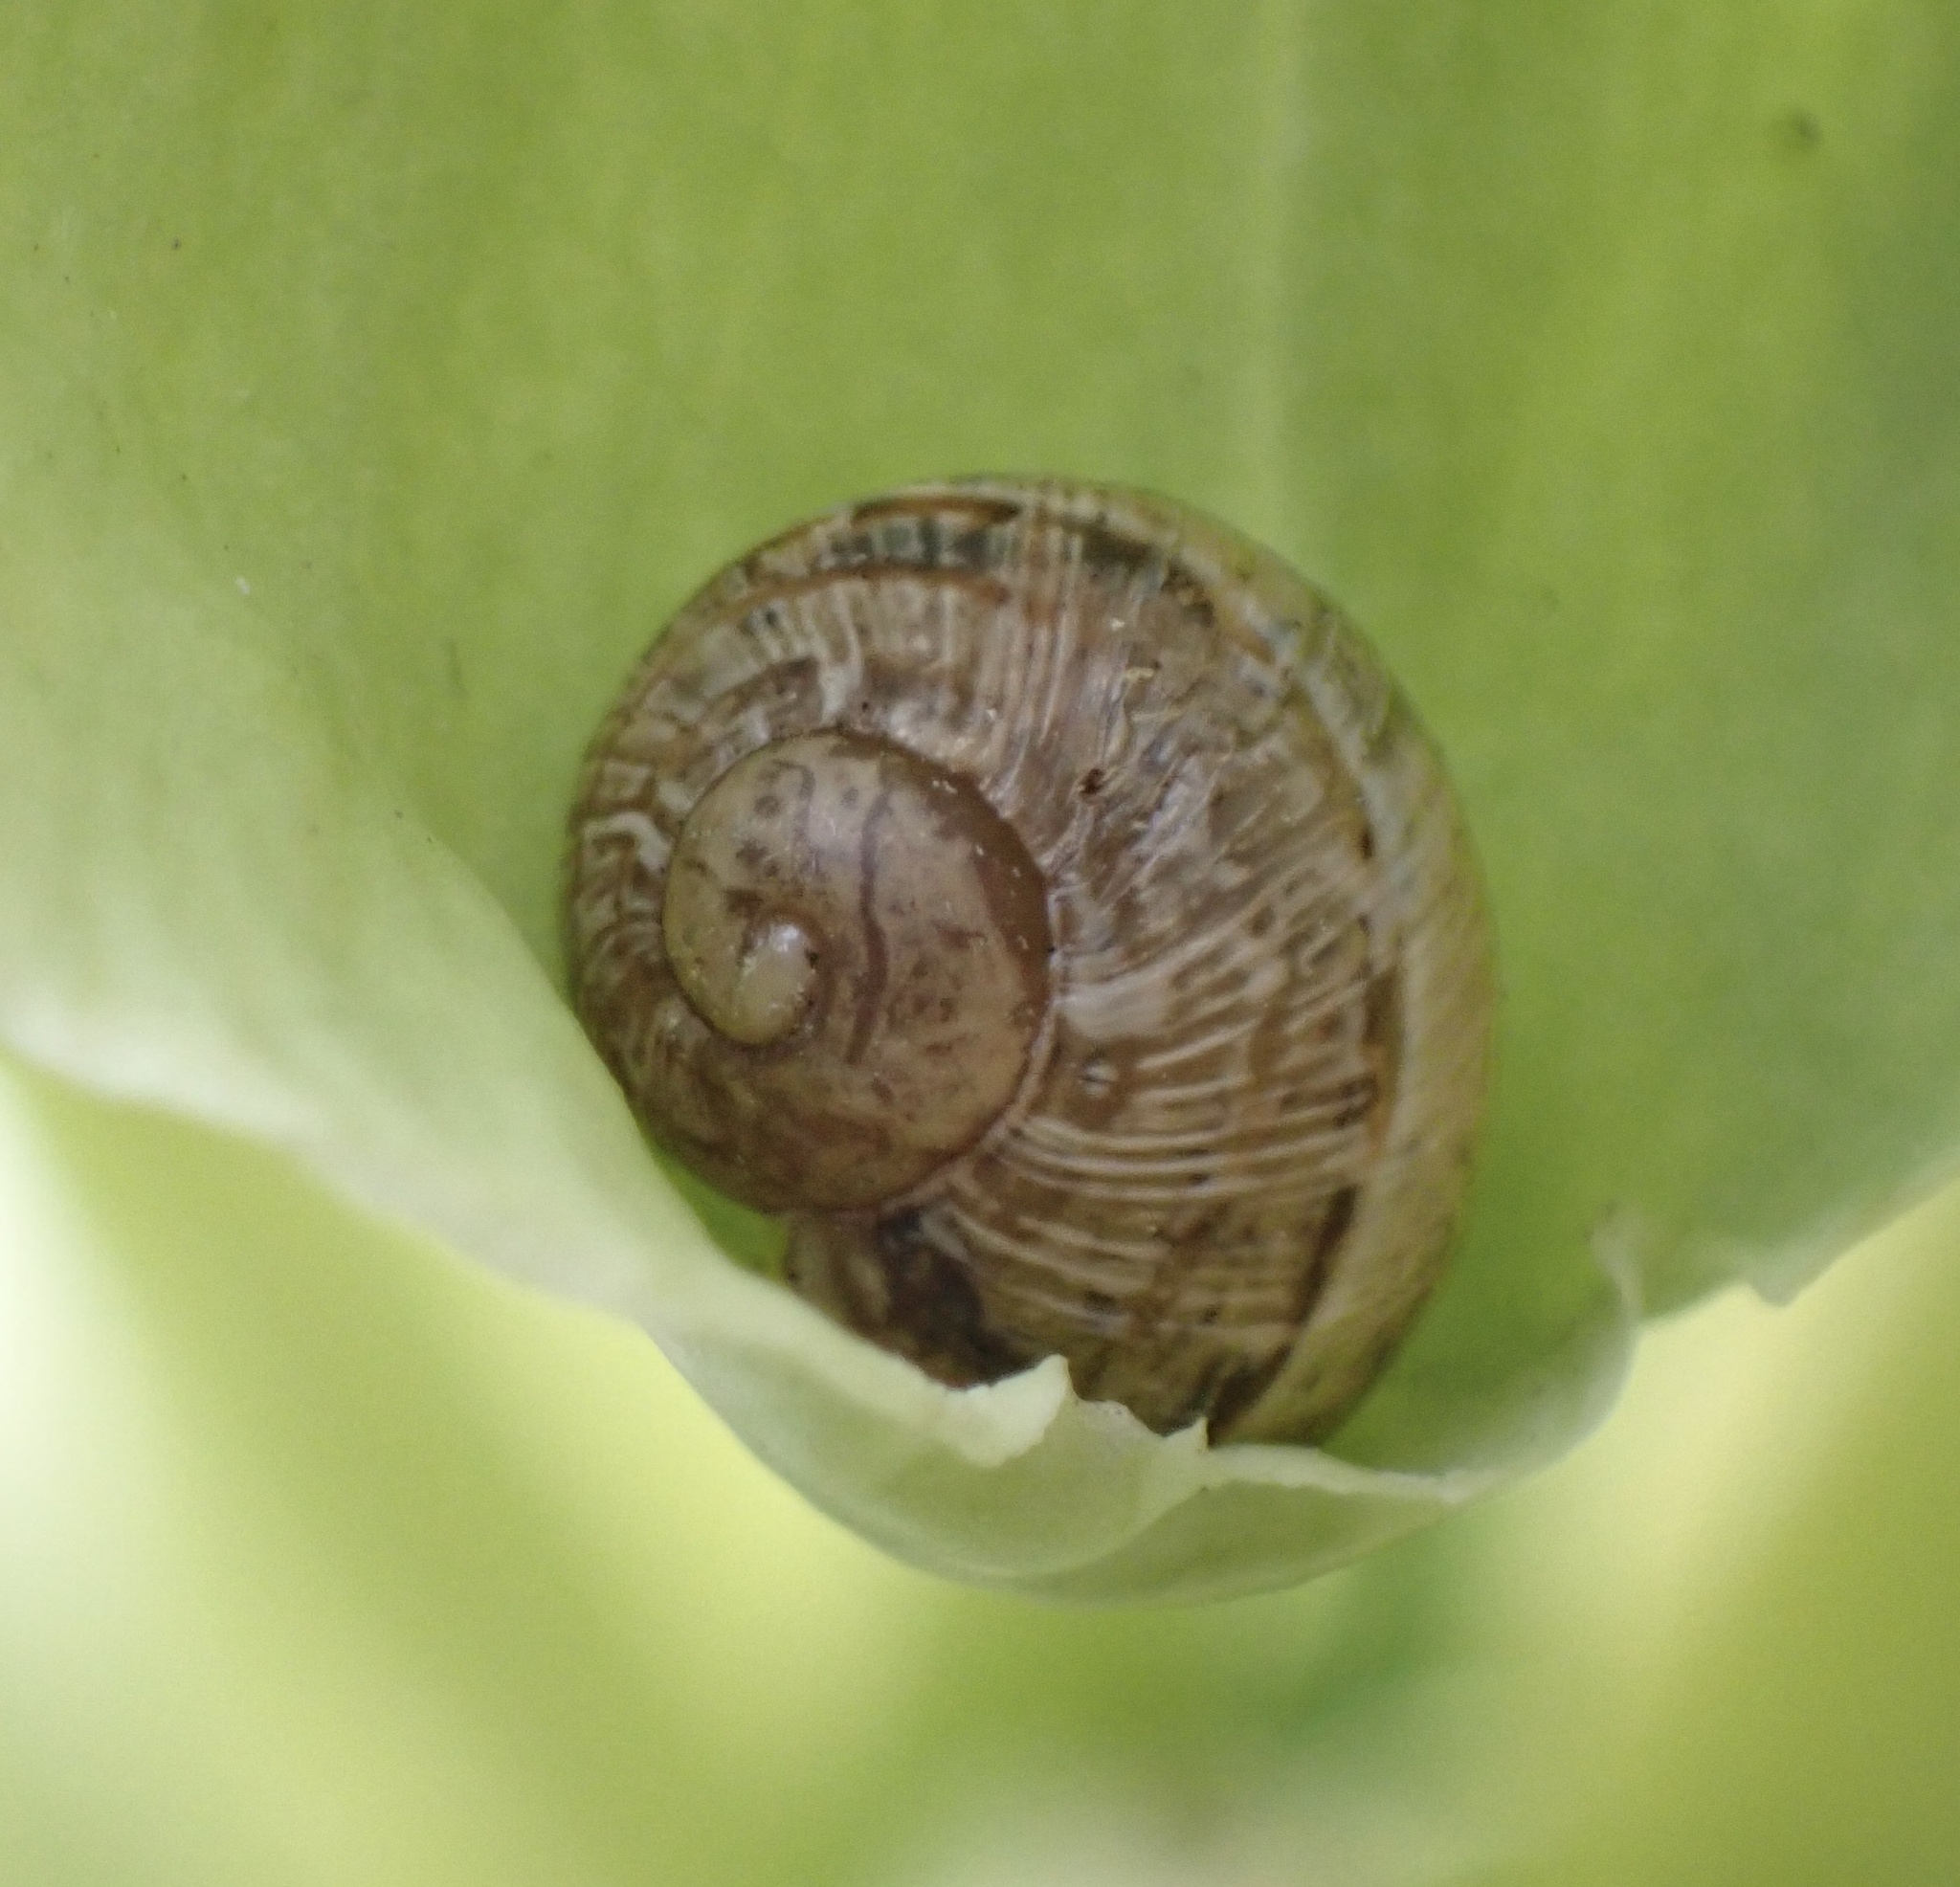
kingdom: Animalia
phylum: Mollusca
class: Gastropoda
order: Stylommatophora
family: Helicidae
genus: Cornu
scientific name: Cornu aspersum
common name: Brown garden snail
